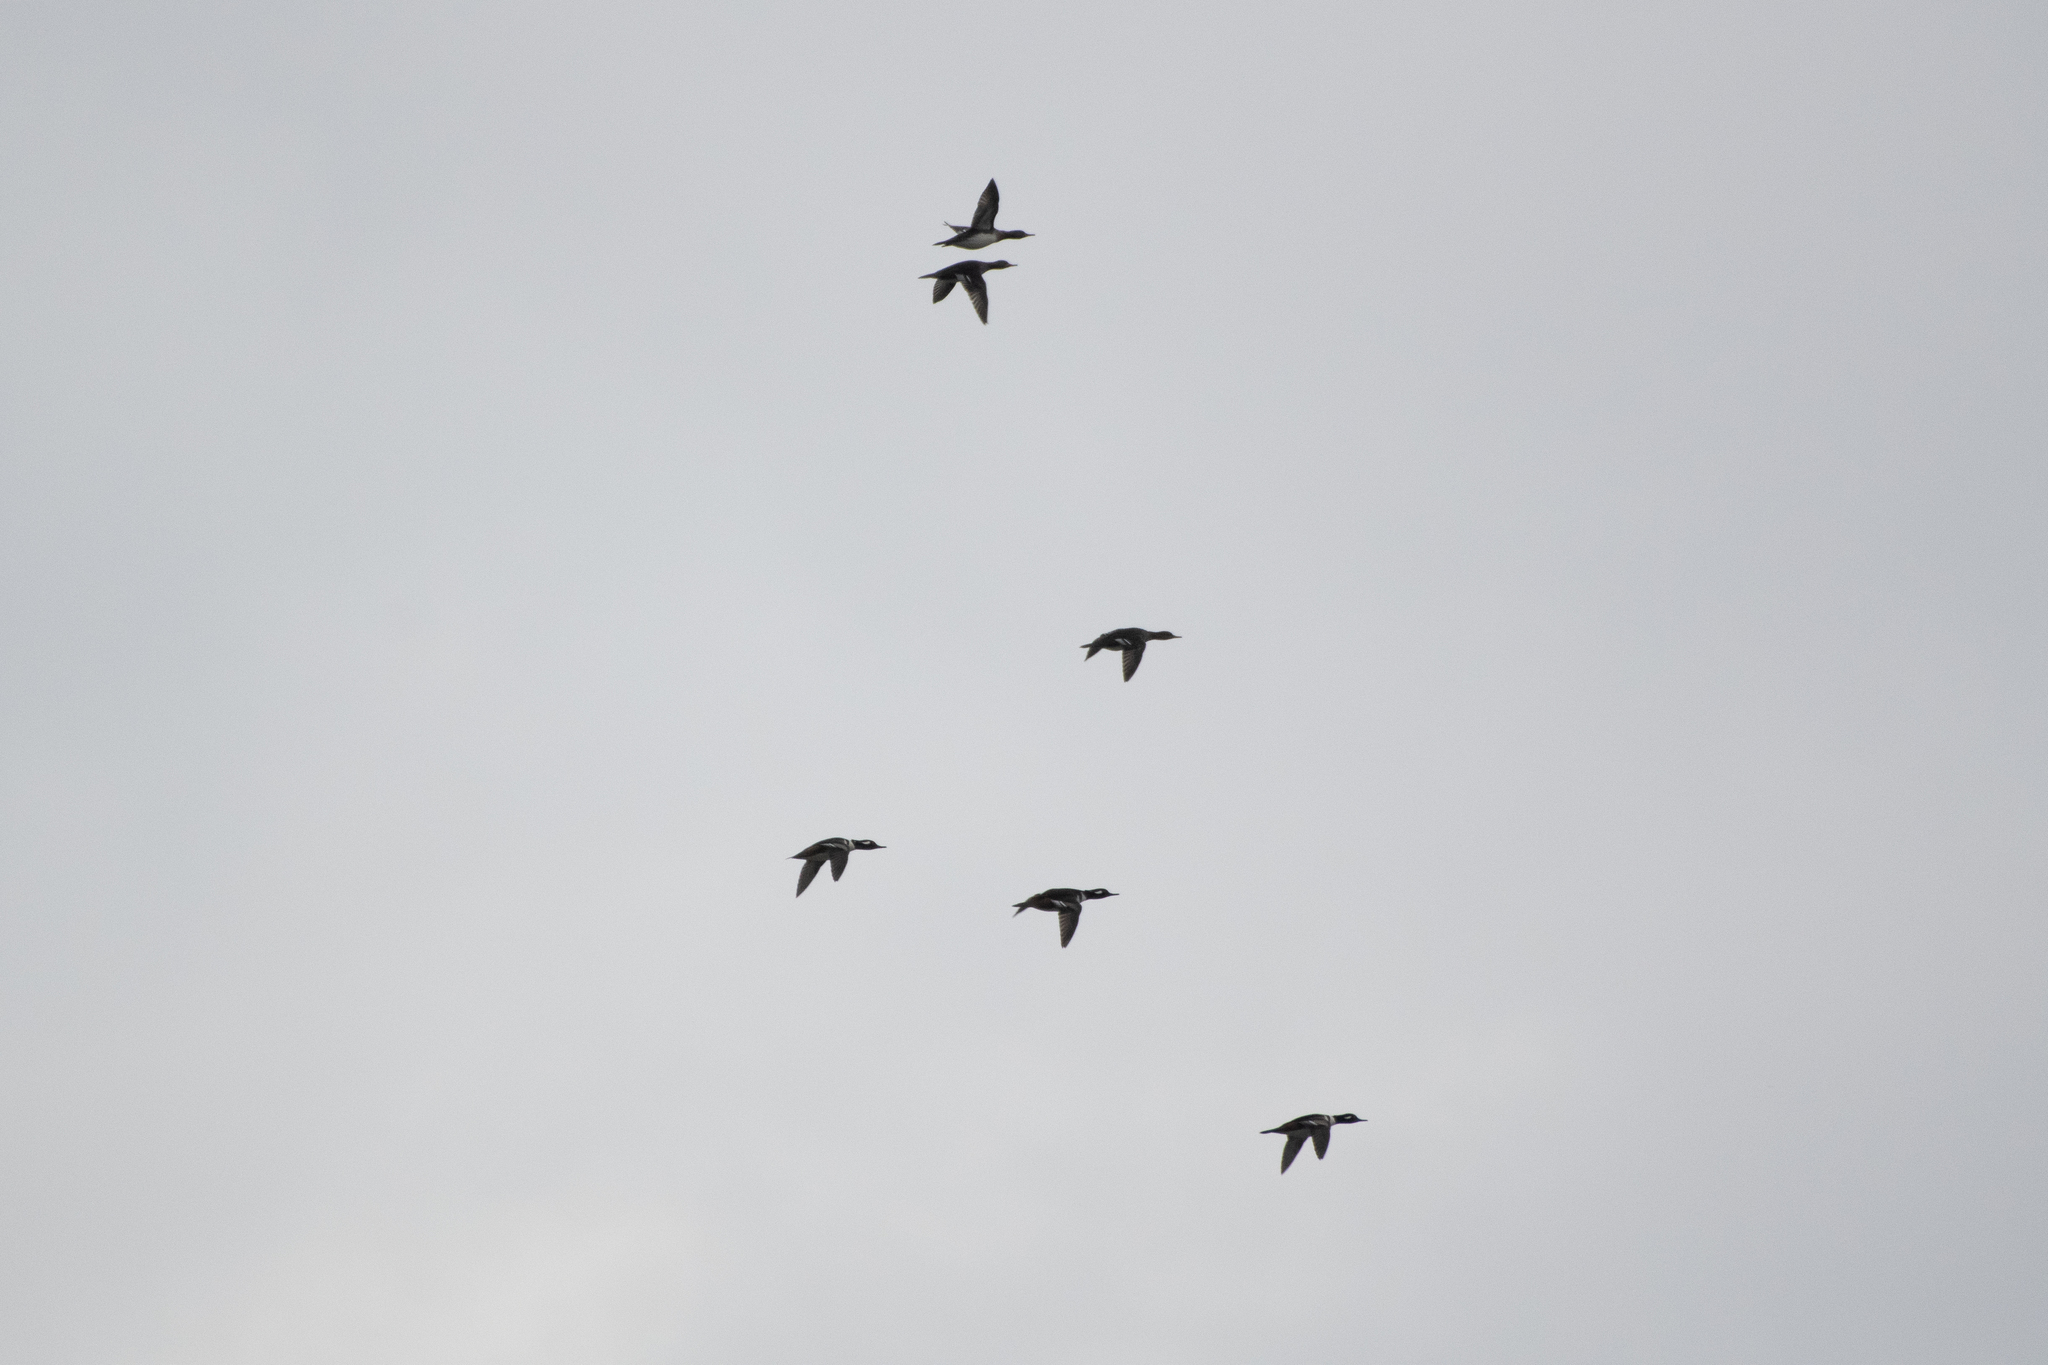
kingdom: Animalia
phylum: Chordata
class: Aves
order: Anseriformes
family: Anatidae
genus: Lophodytes
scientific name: Lophodytes cucullatus
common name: Hooded merganser
